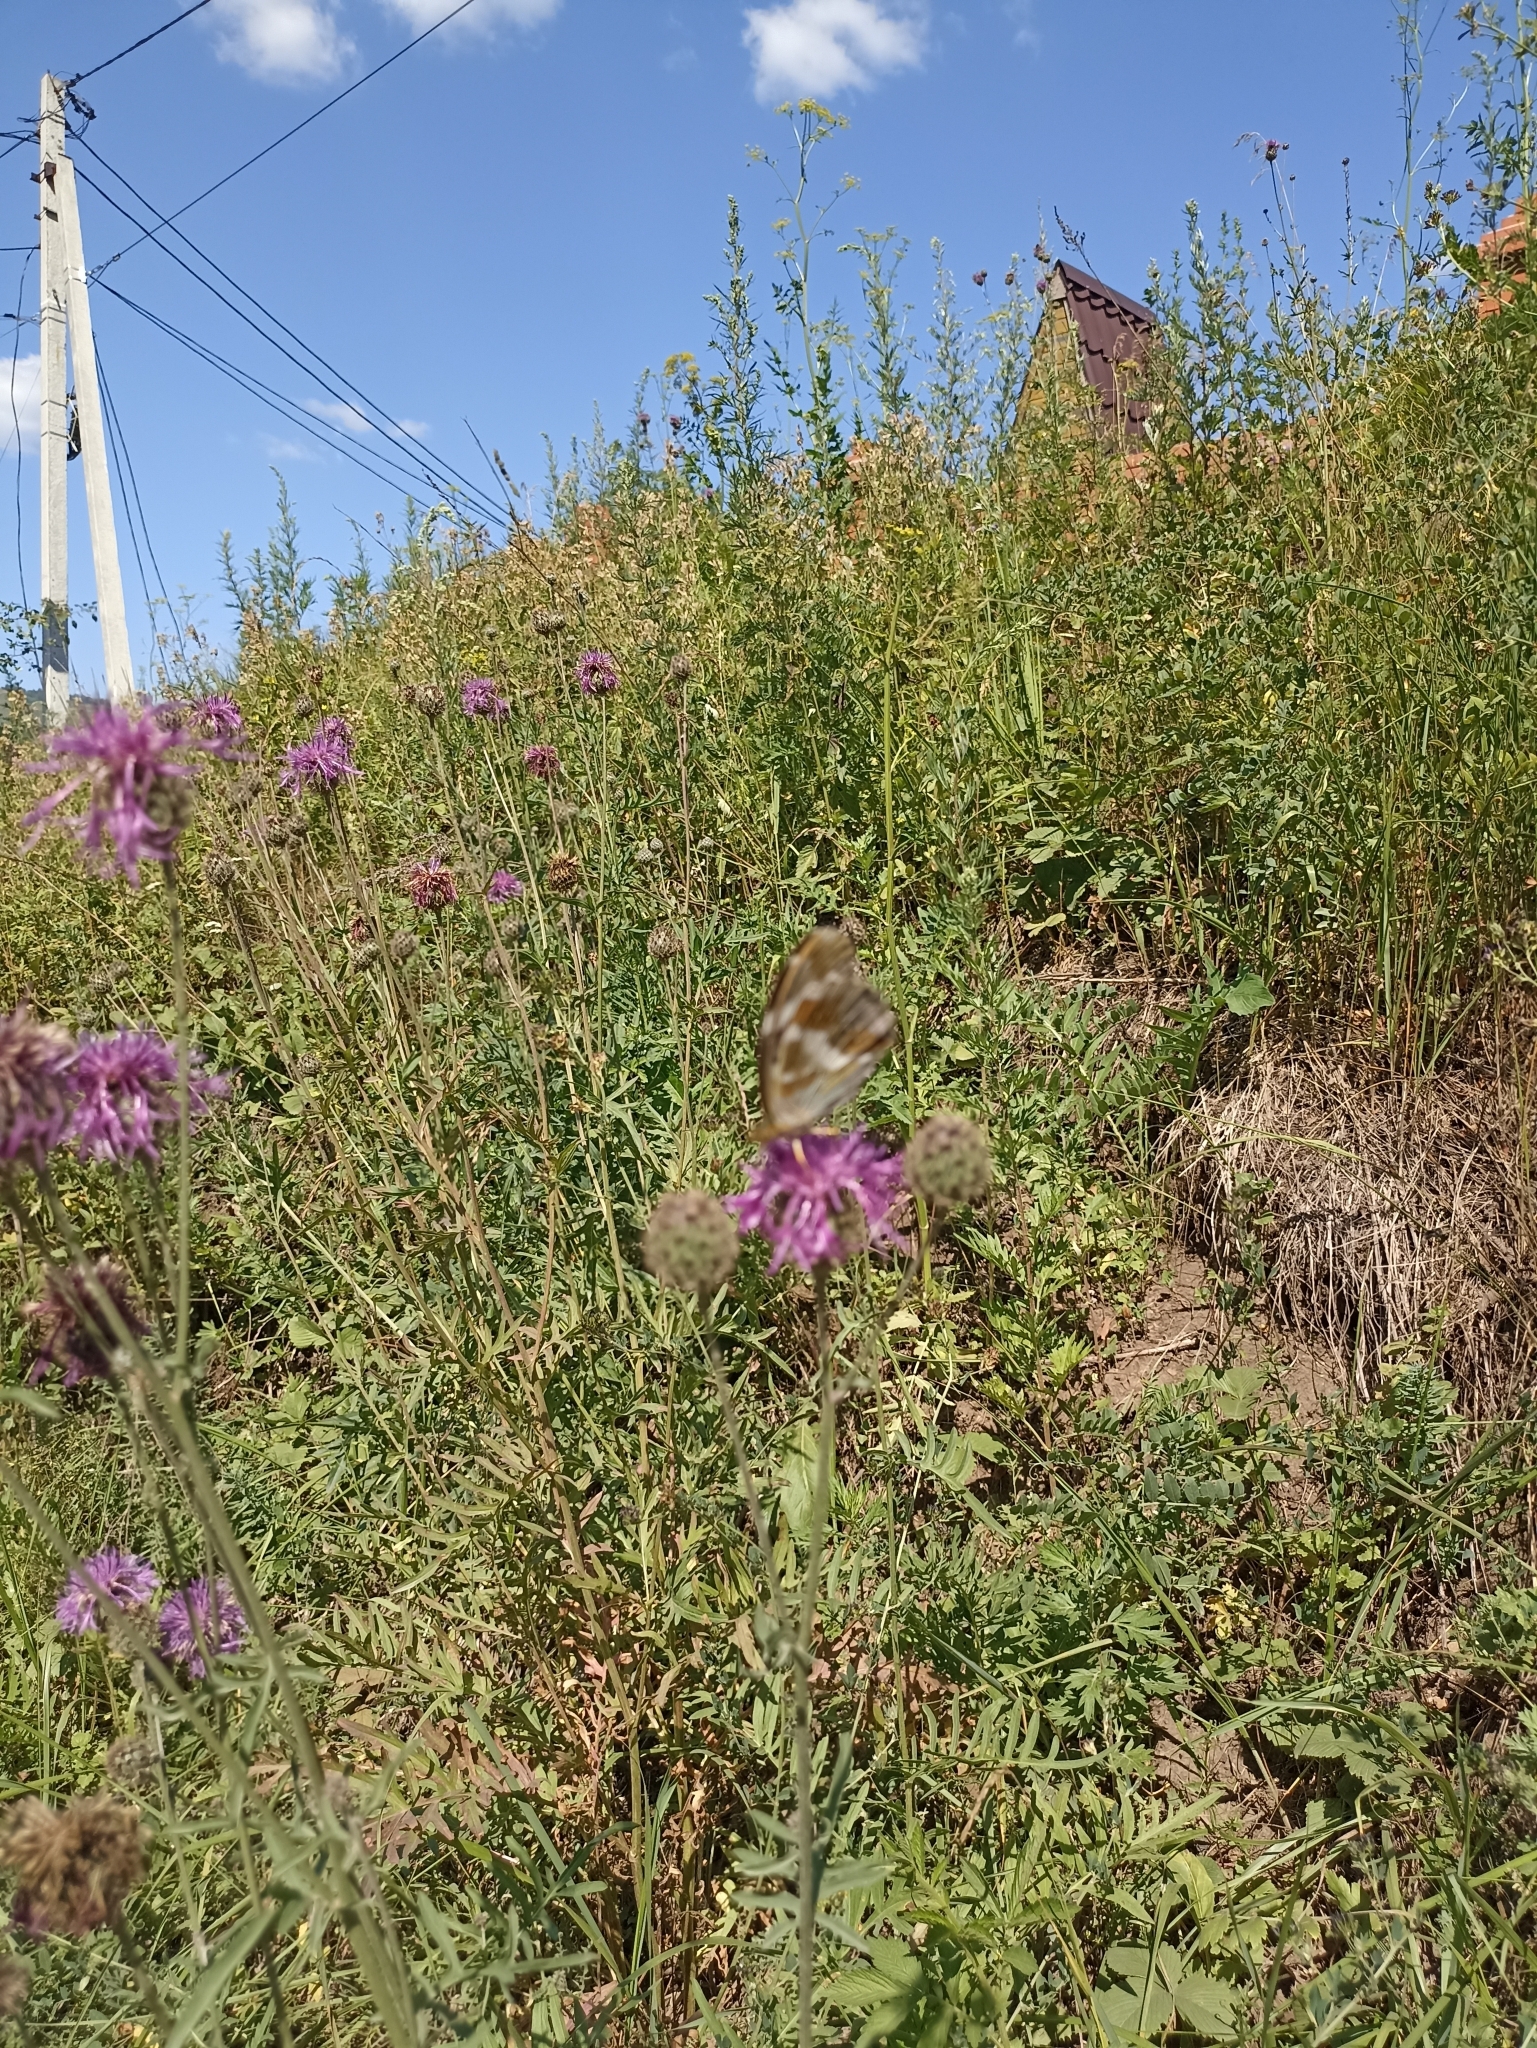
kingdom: Animalia
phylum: Arthropoda
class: Insecta
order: Lepidoptera
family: Nymphalidae
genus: Damora
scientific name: Damora sagana
